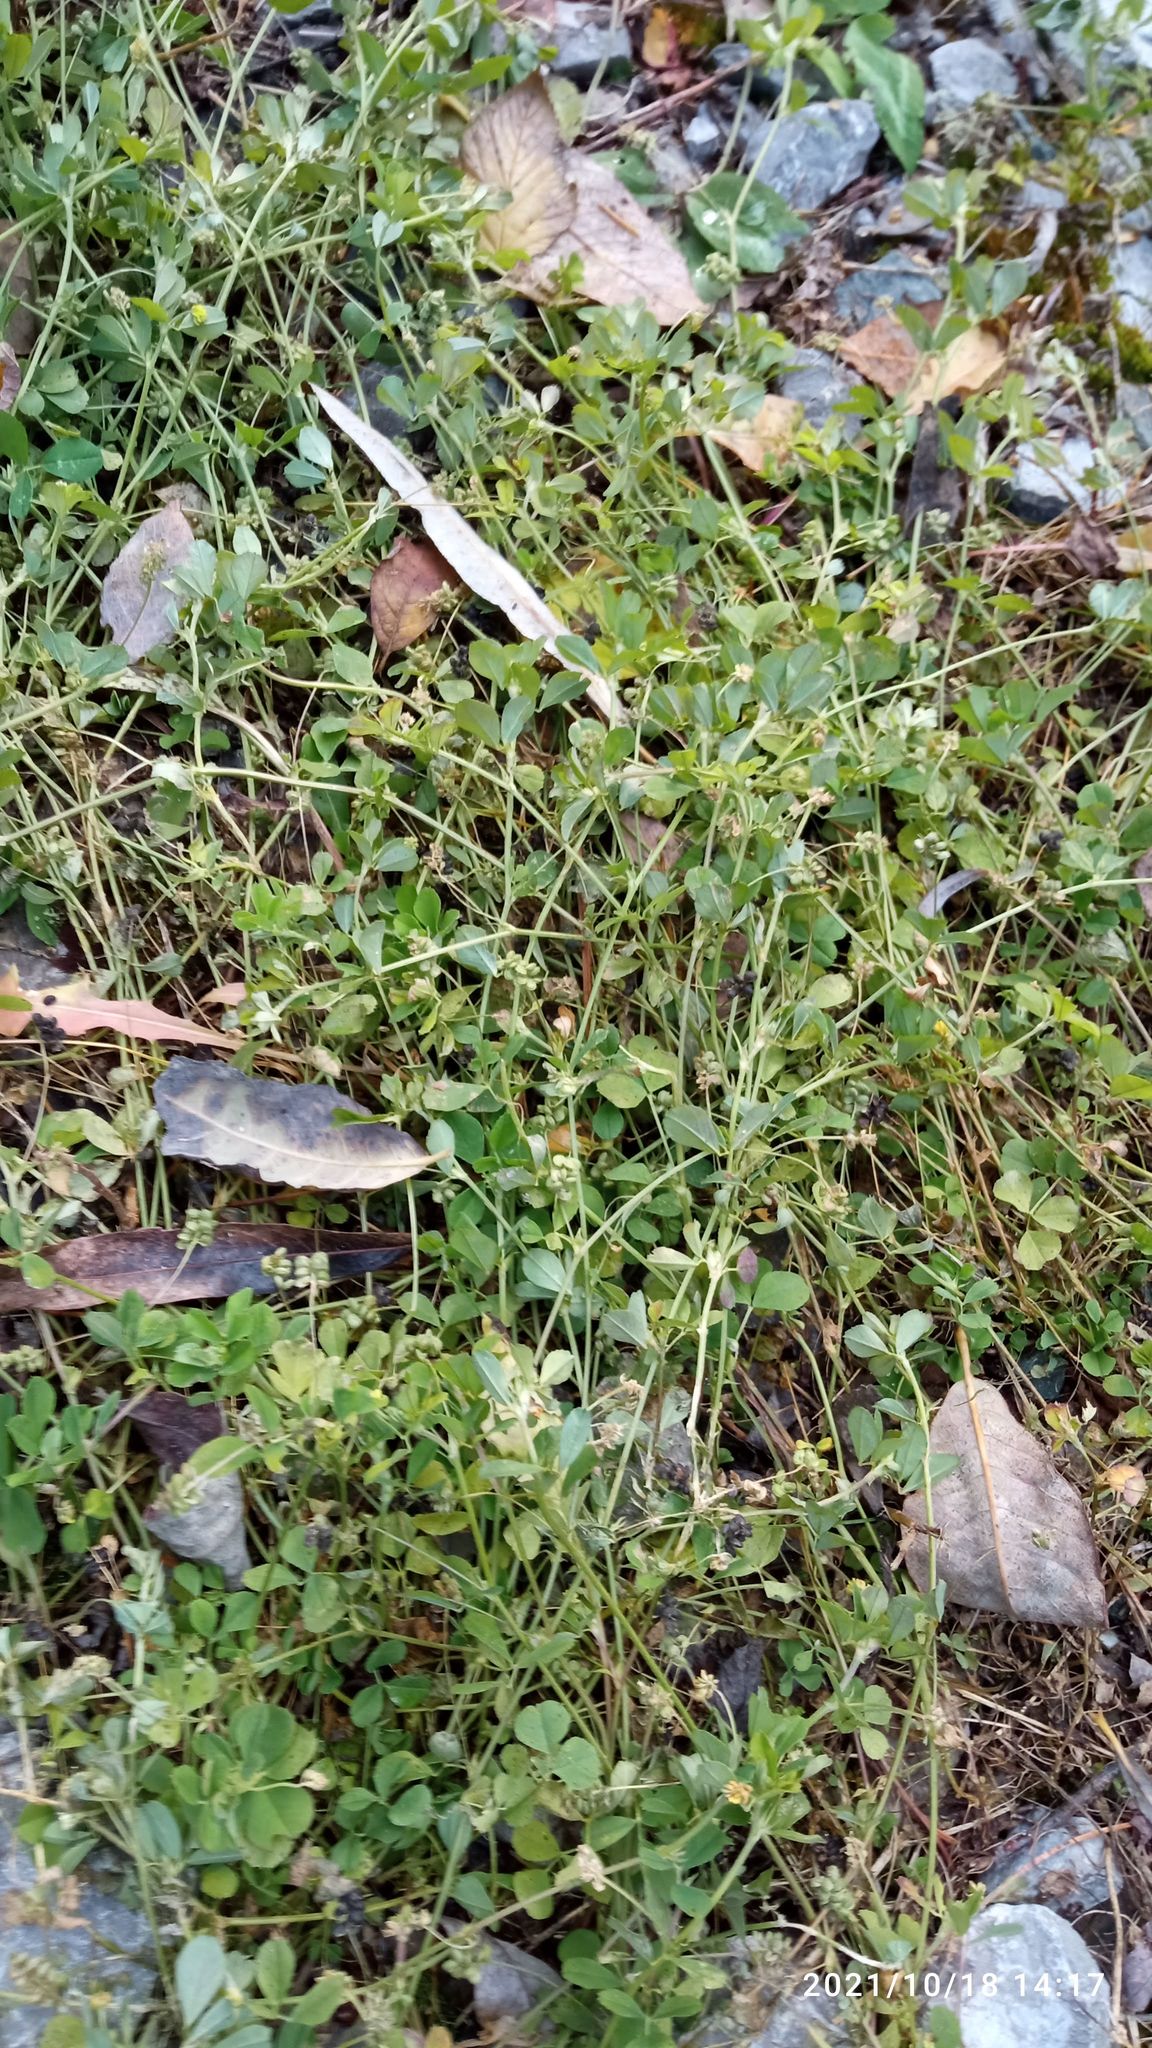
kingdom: Plantae
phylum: Tracheophyta
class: Magnoliopsida
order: Fabales
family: Fabaceae
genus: Medicago
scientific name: Medicago lupulina
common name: Black medick
